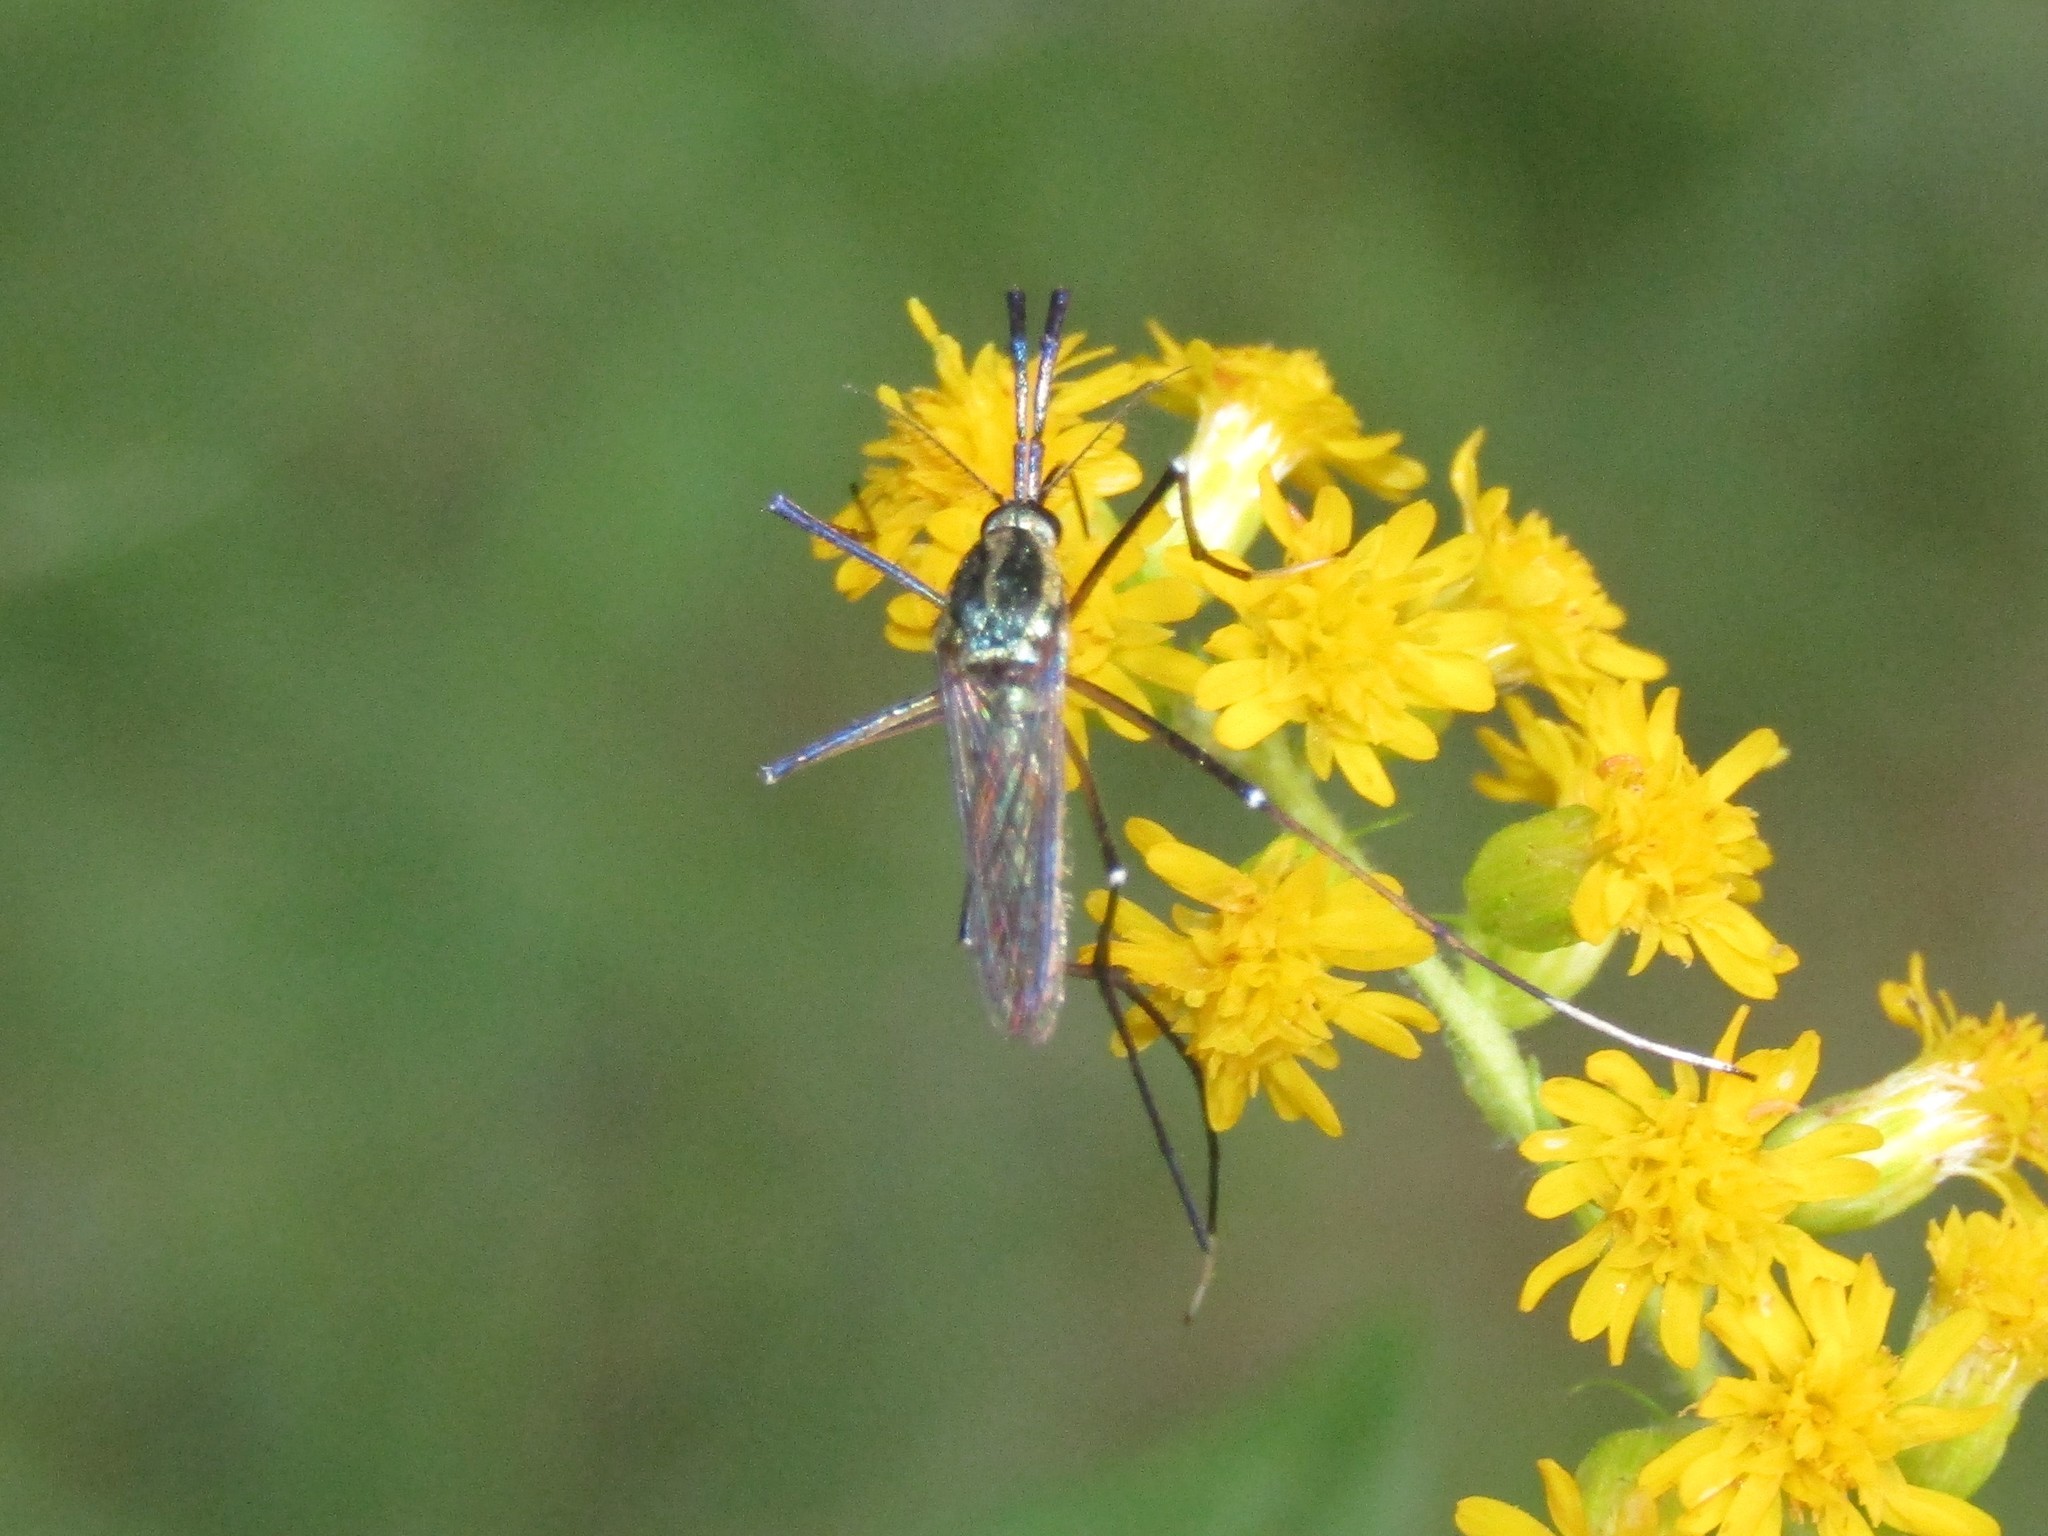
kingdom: Animalia
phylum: Arthropoda
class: Insecta
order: Diptera
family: Culicidae
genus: Toxorhynchites
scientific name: Toxorhynchites rutilus
